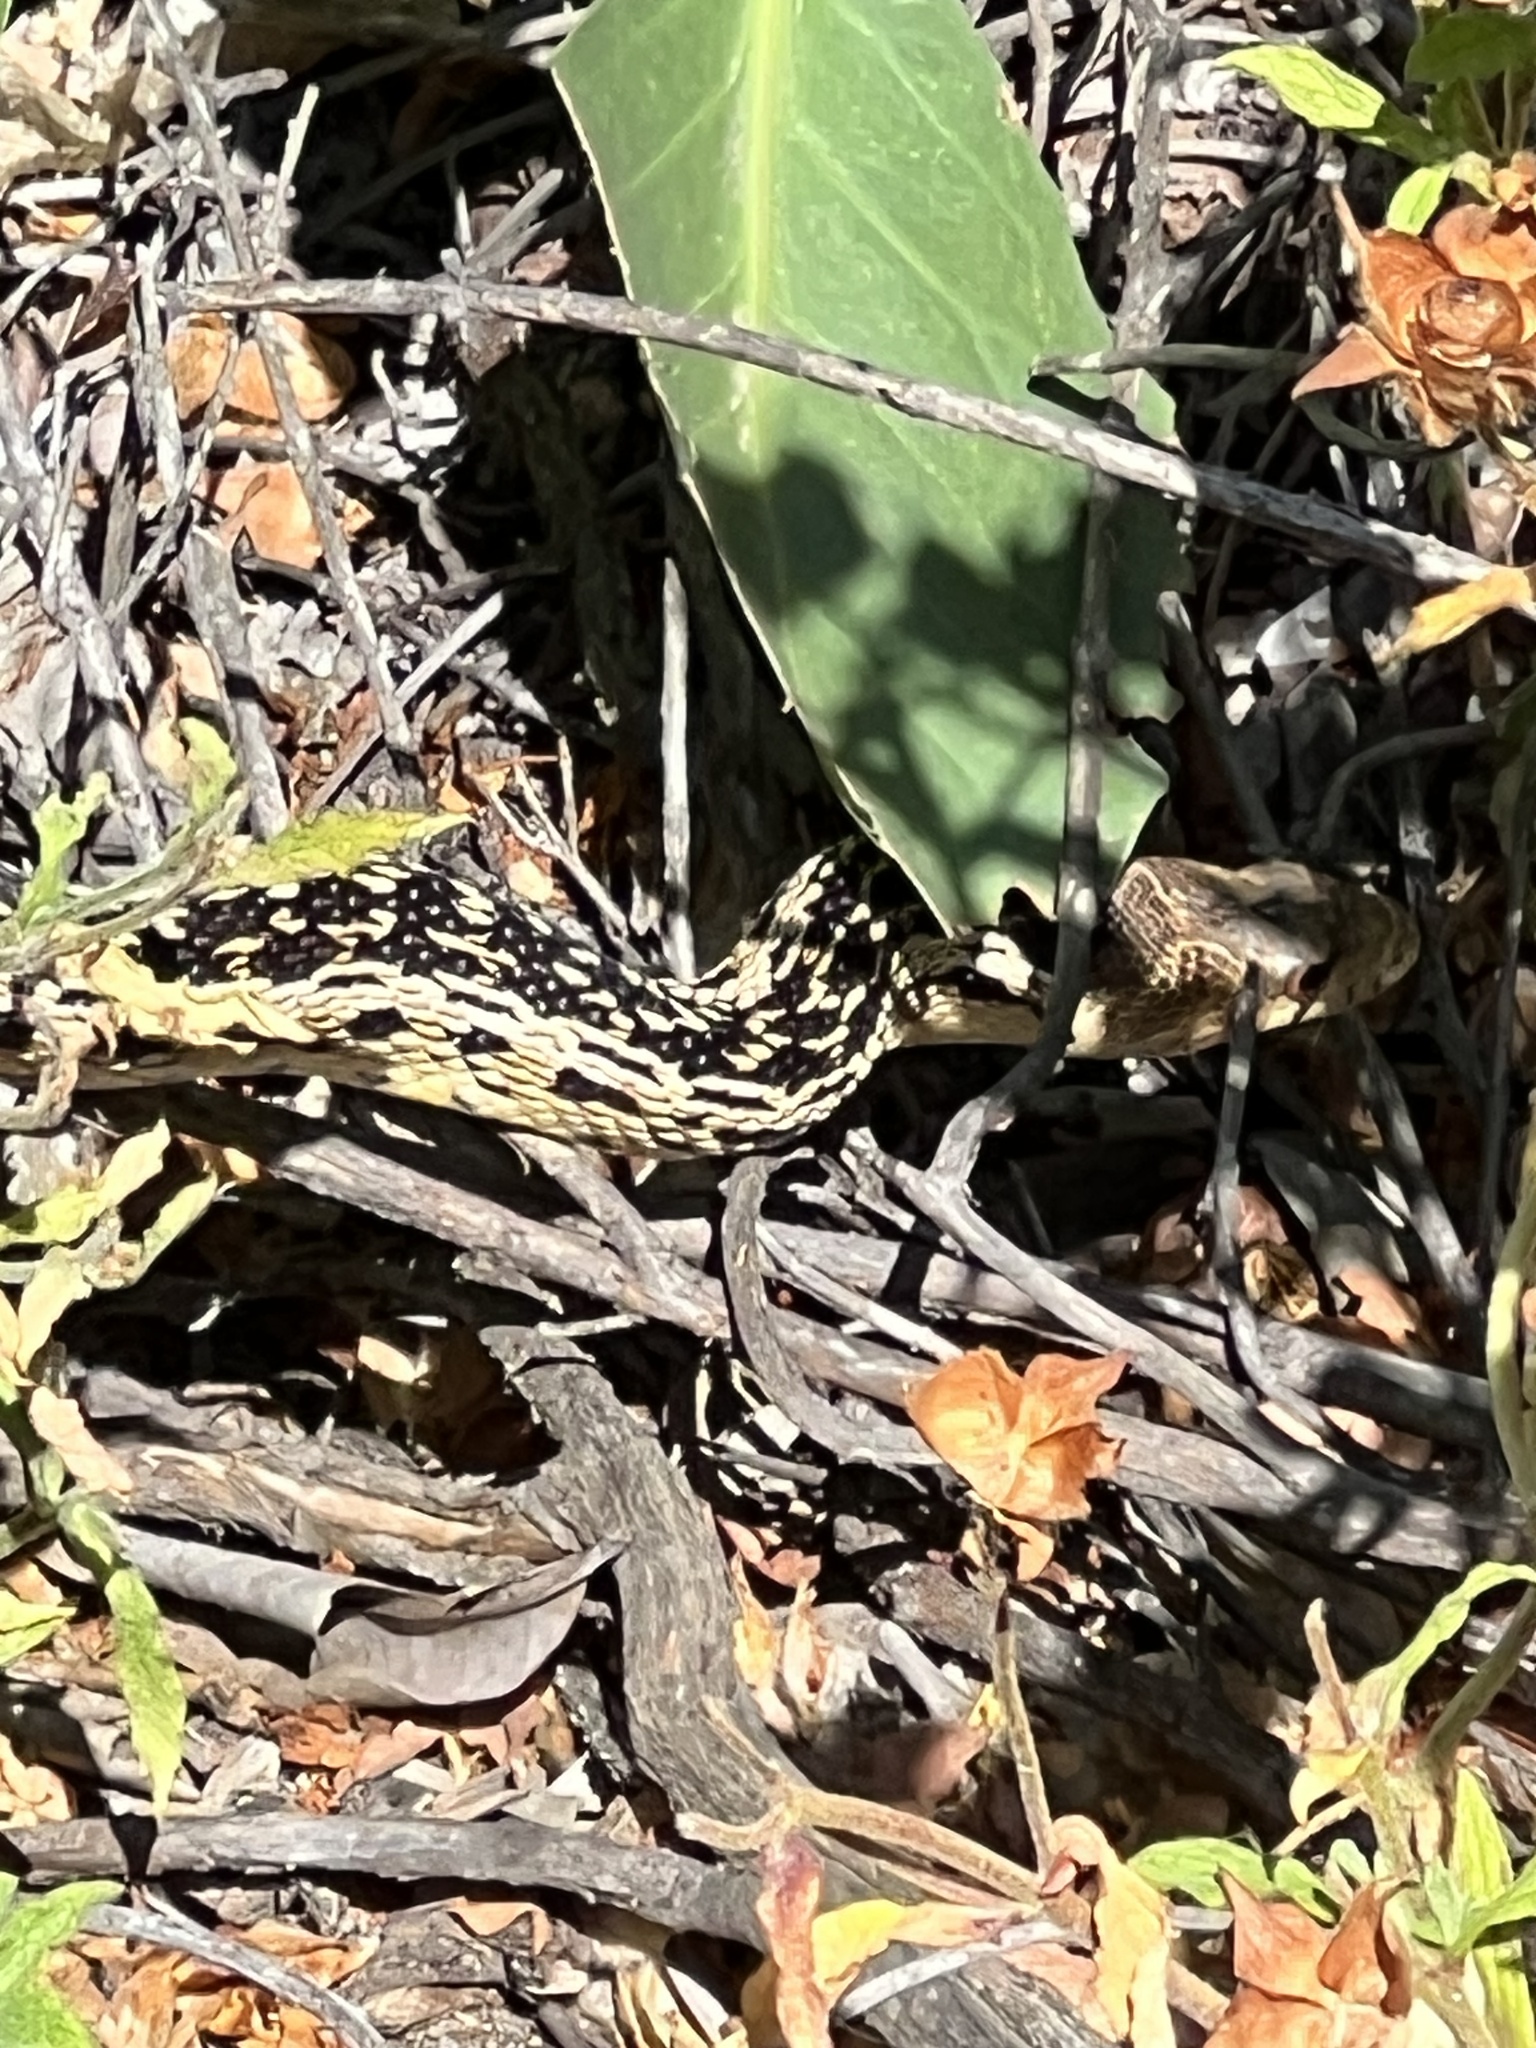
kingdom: Animalia
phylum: Chordata
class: Squamata
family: Colubridae
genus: Pituophis
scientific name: Pituophis catenifer
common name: Gopher snake
